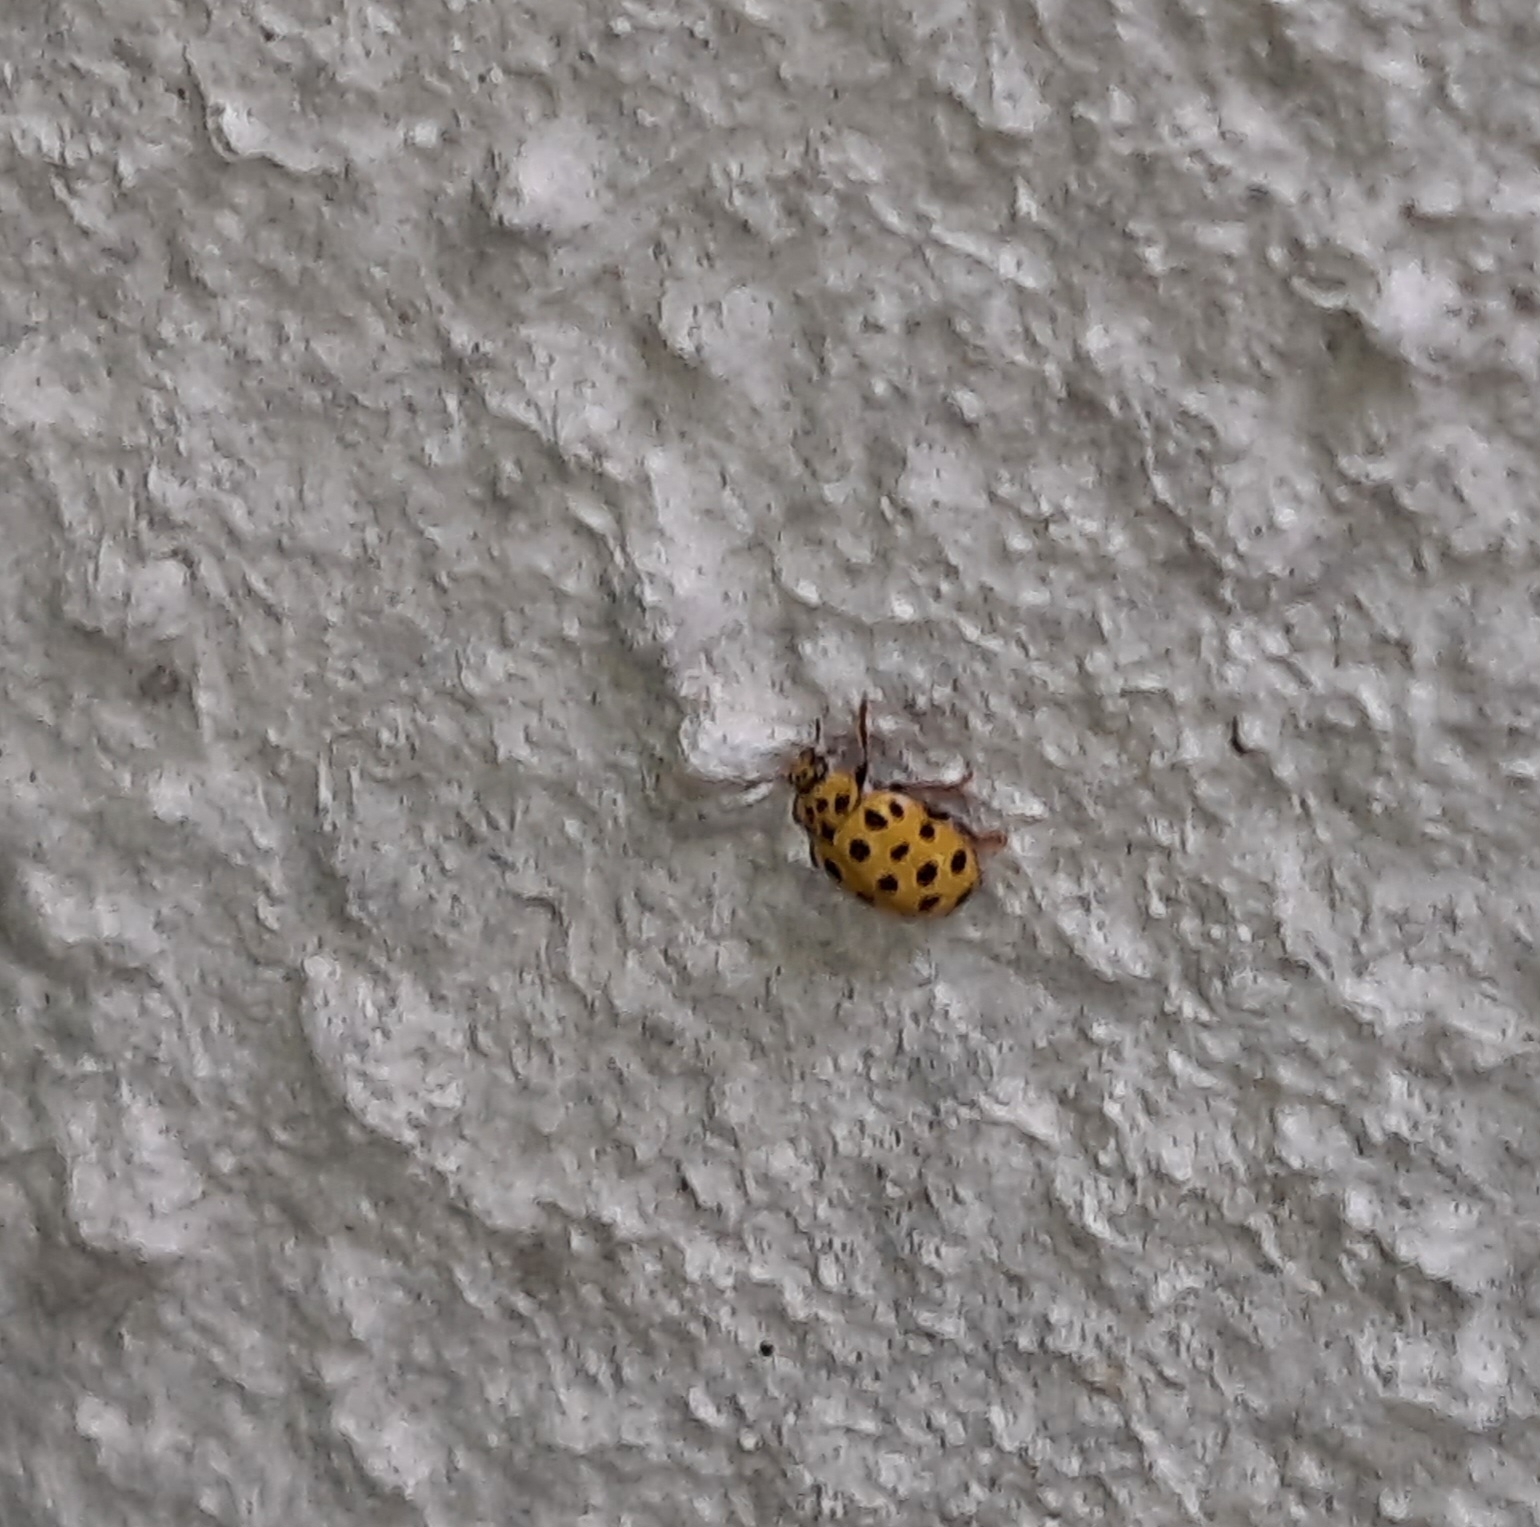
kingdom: Animalia
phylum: Arthropoda
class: Insecta
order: Coleoptera
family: Coccinellidae
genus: Psyllobora
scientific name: Psyllobora vigintiduopunctata
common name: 22-spot ladybird
